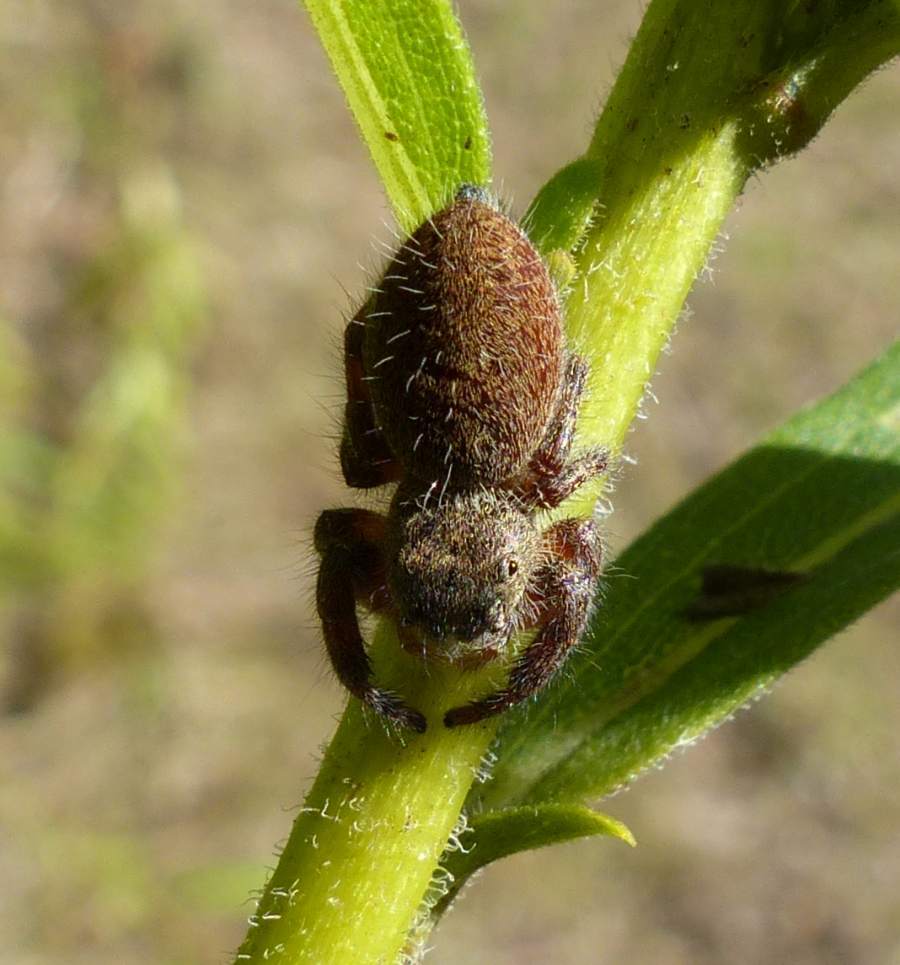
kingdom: Animalia
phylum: Arthropoda
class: Arachnida
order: Araneae
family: Salticidae
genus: Phidippus
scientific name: Phidippus princeps
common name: Grayish jumping spider
